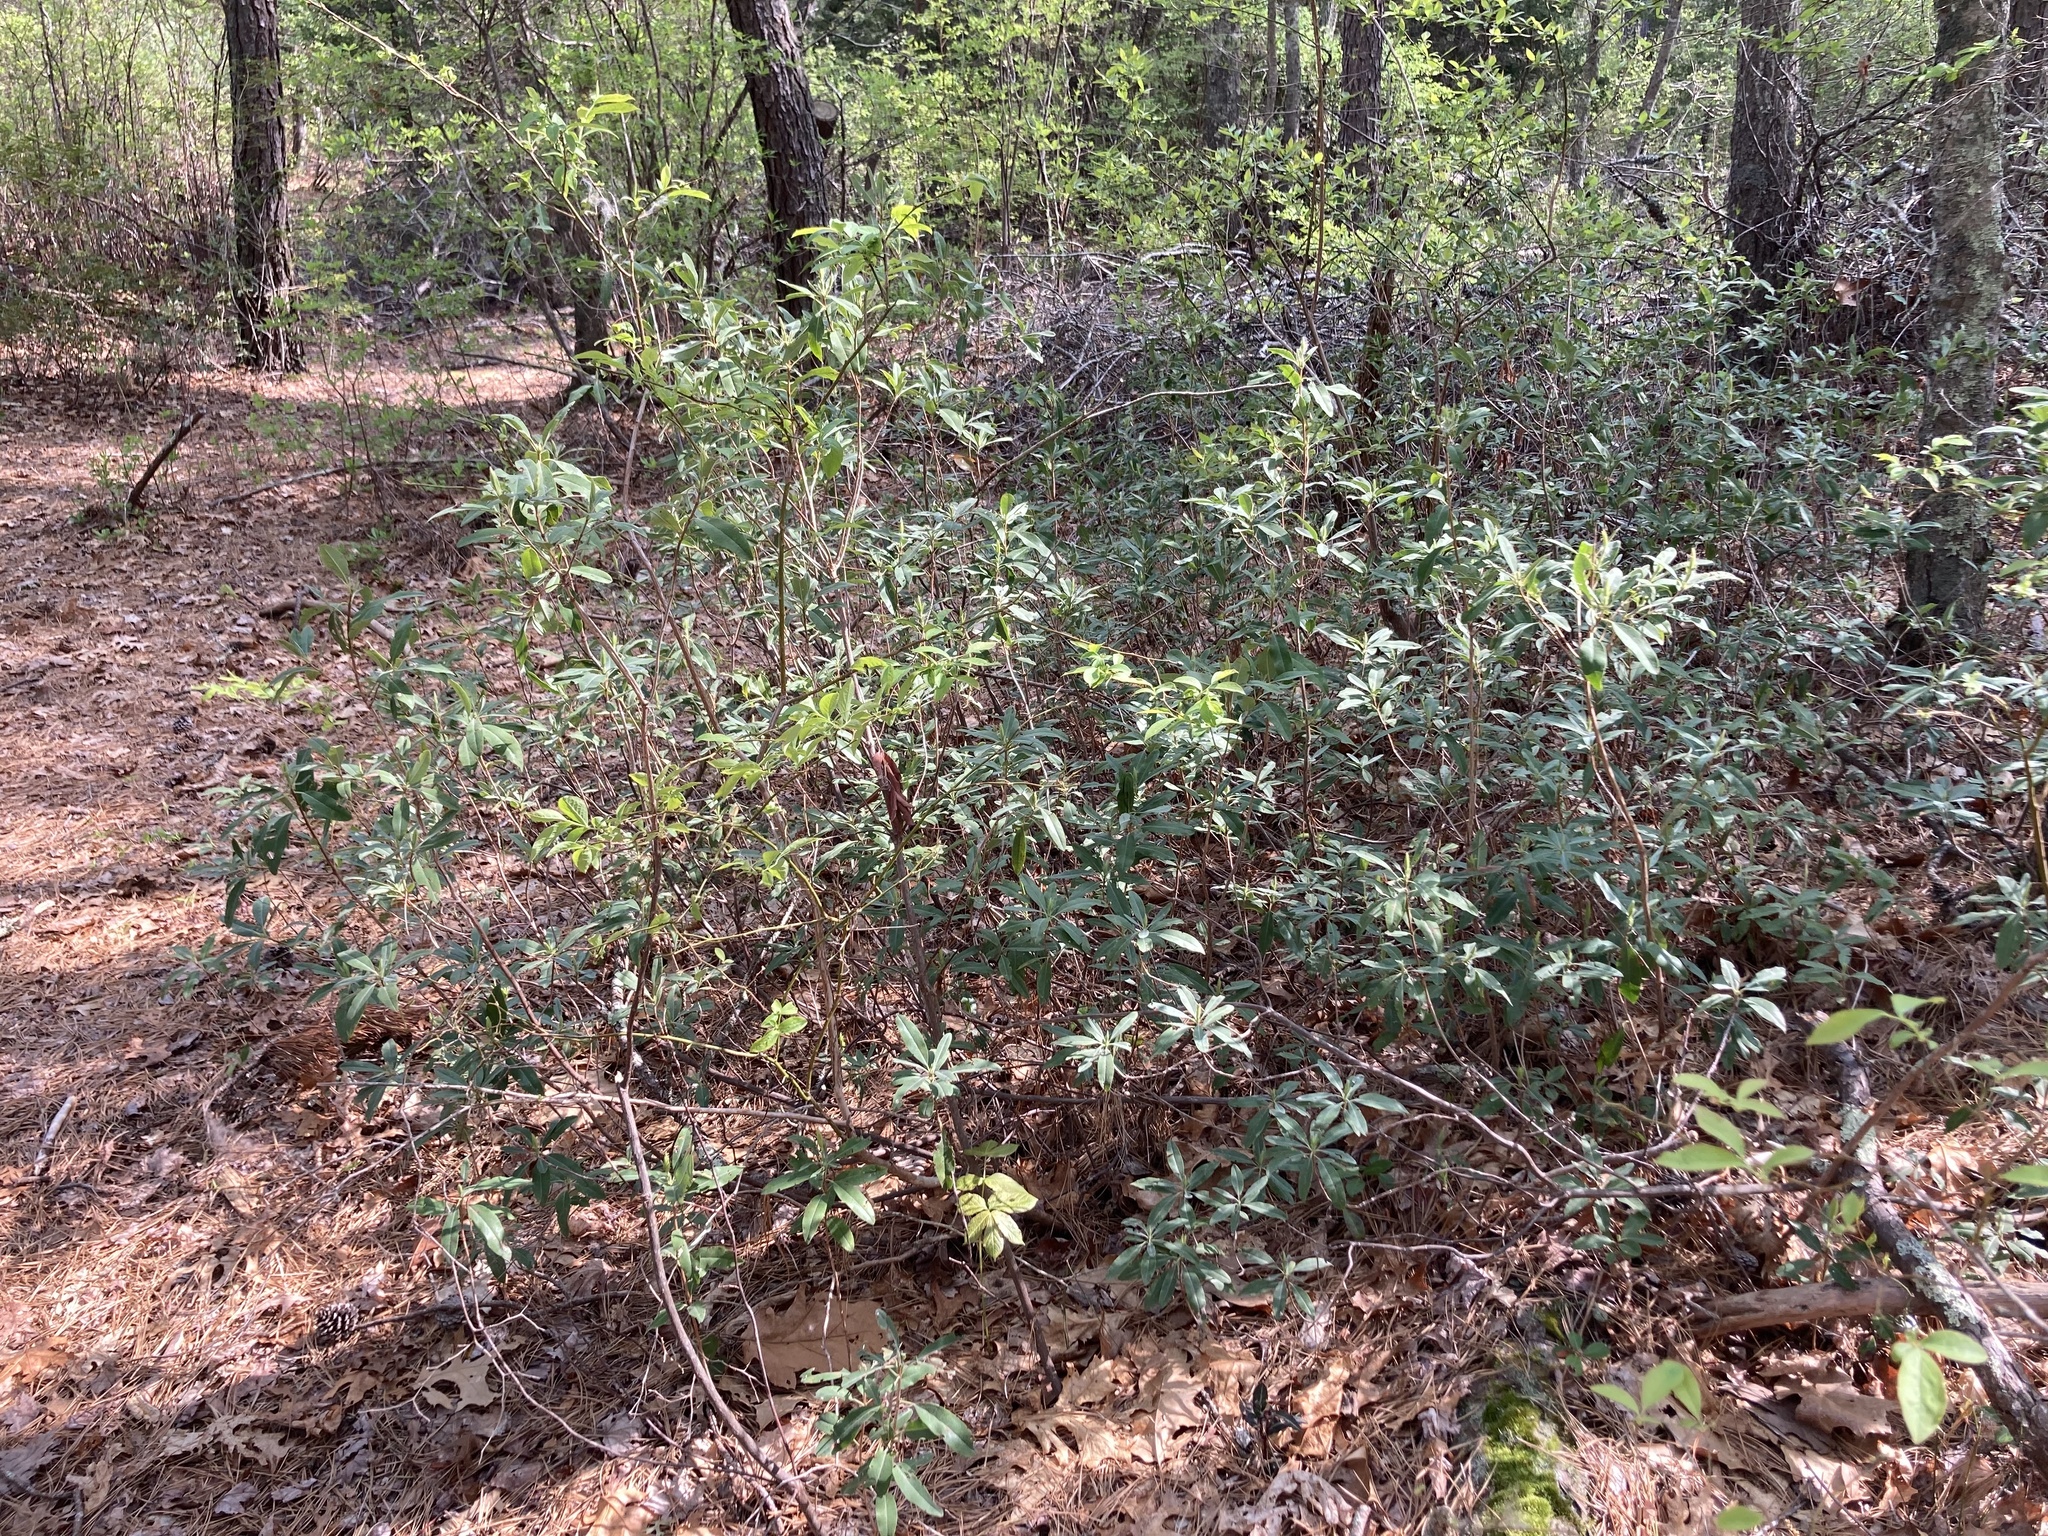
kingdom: Plantae
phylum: Tracheophyta
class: Magnoliopsida
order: Ericales
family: Ericaceae
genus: Kalmia
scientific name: Kalmia angustifolia
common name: Sheep-laurel
